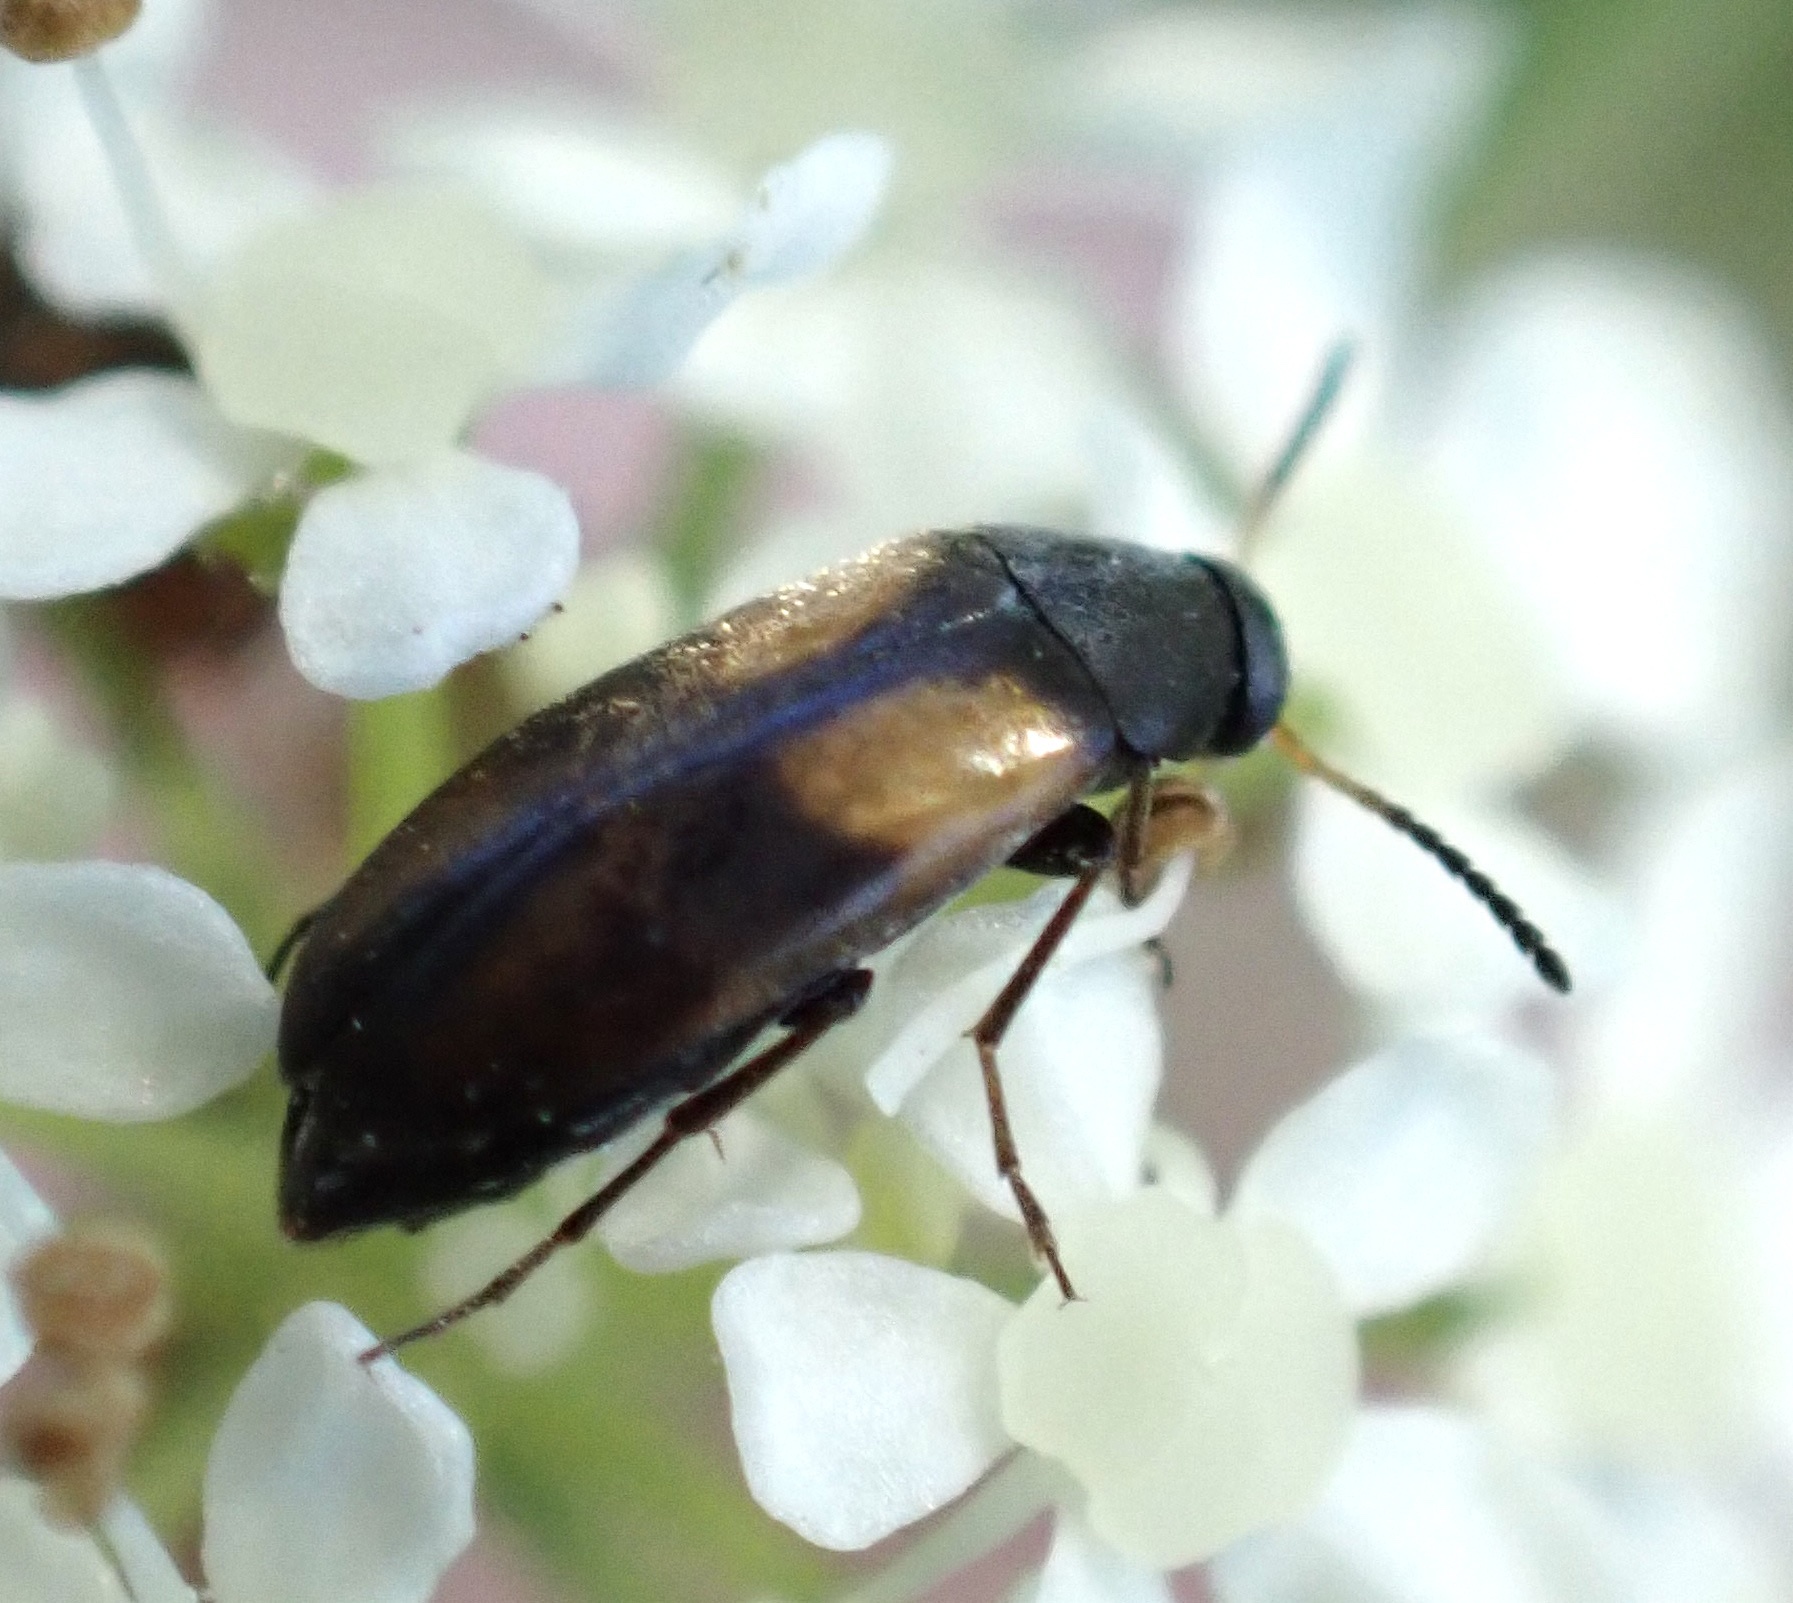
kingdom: Animalia
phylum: Arthropoda
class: Insecta
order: Coleoptera
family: Scraptiidae
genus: Anaspis
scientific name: Anaspis fasciata
